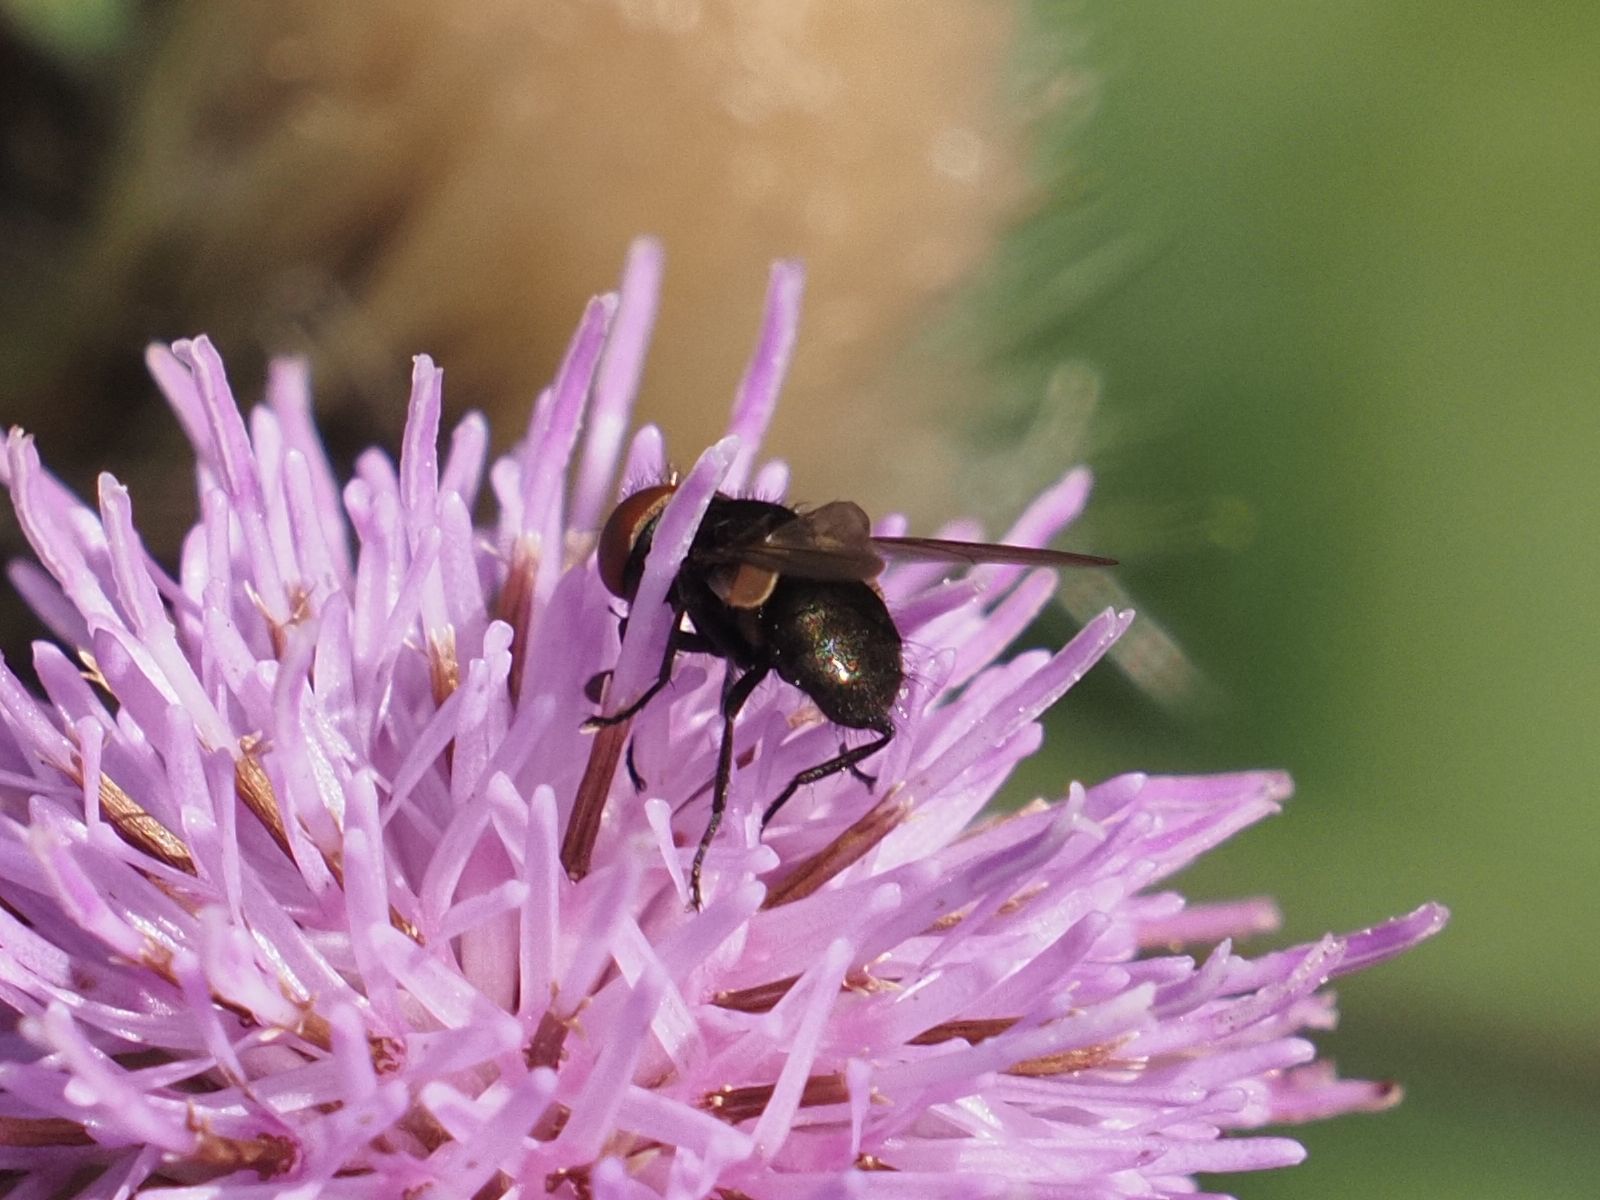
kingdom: Animalia
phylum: Arthropoda
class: Insecta
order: Diptera
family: Tachinidae
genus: Phasia
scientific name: Phasia barbifrons
